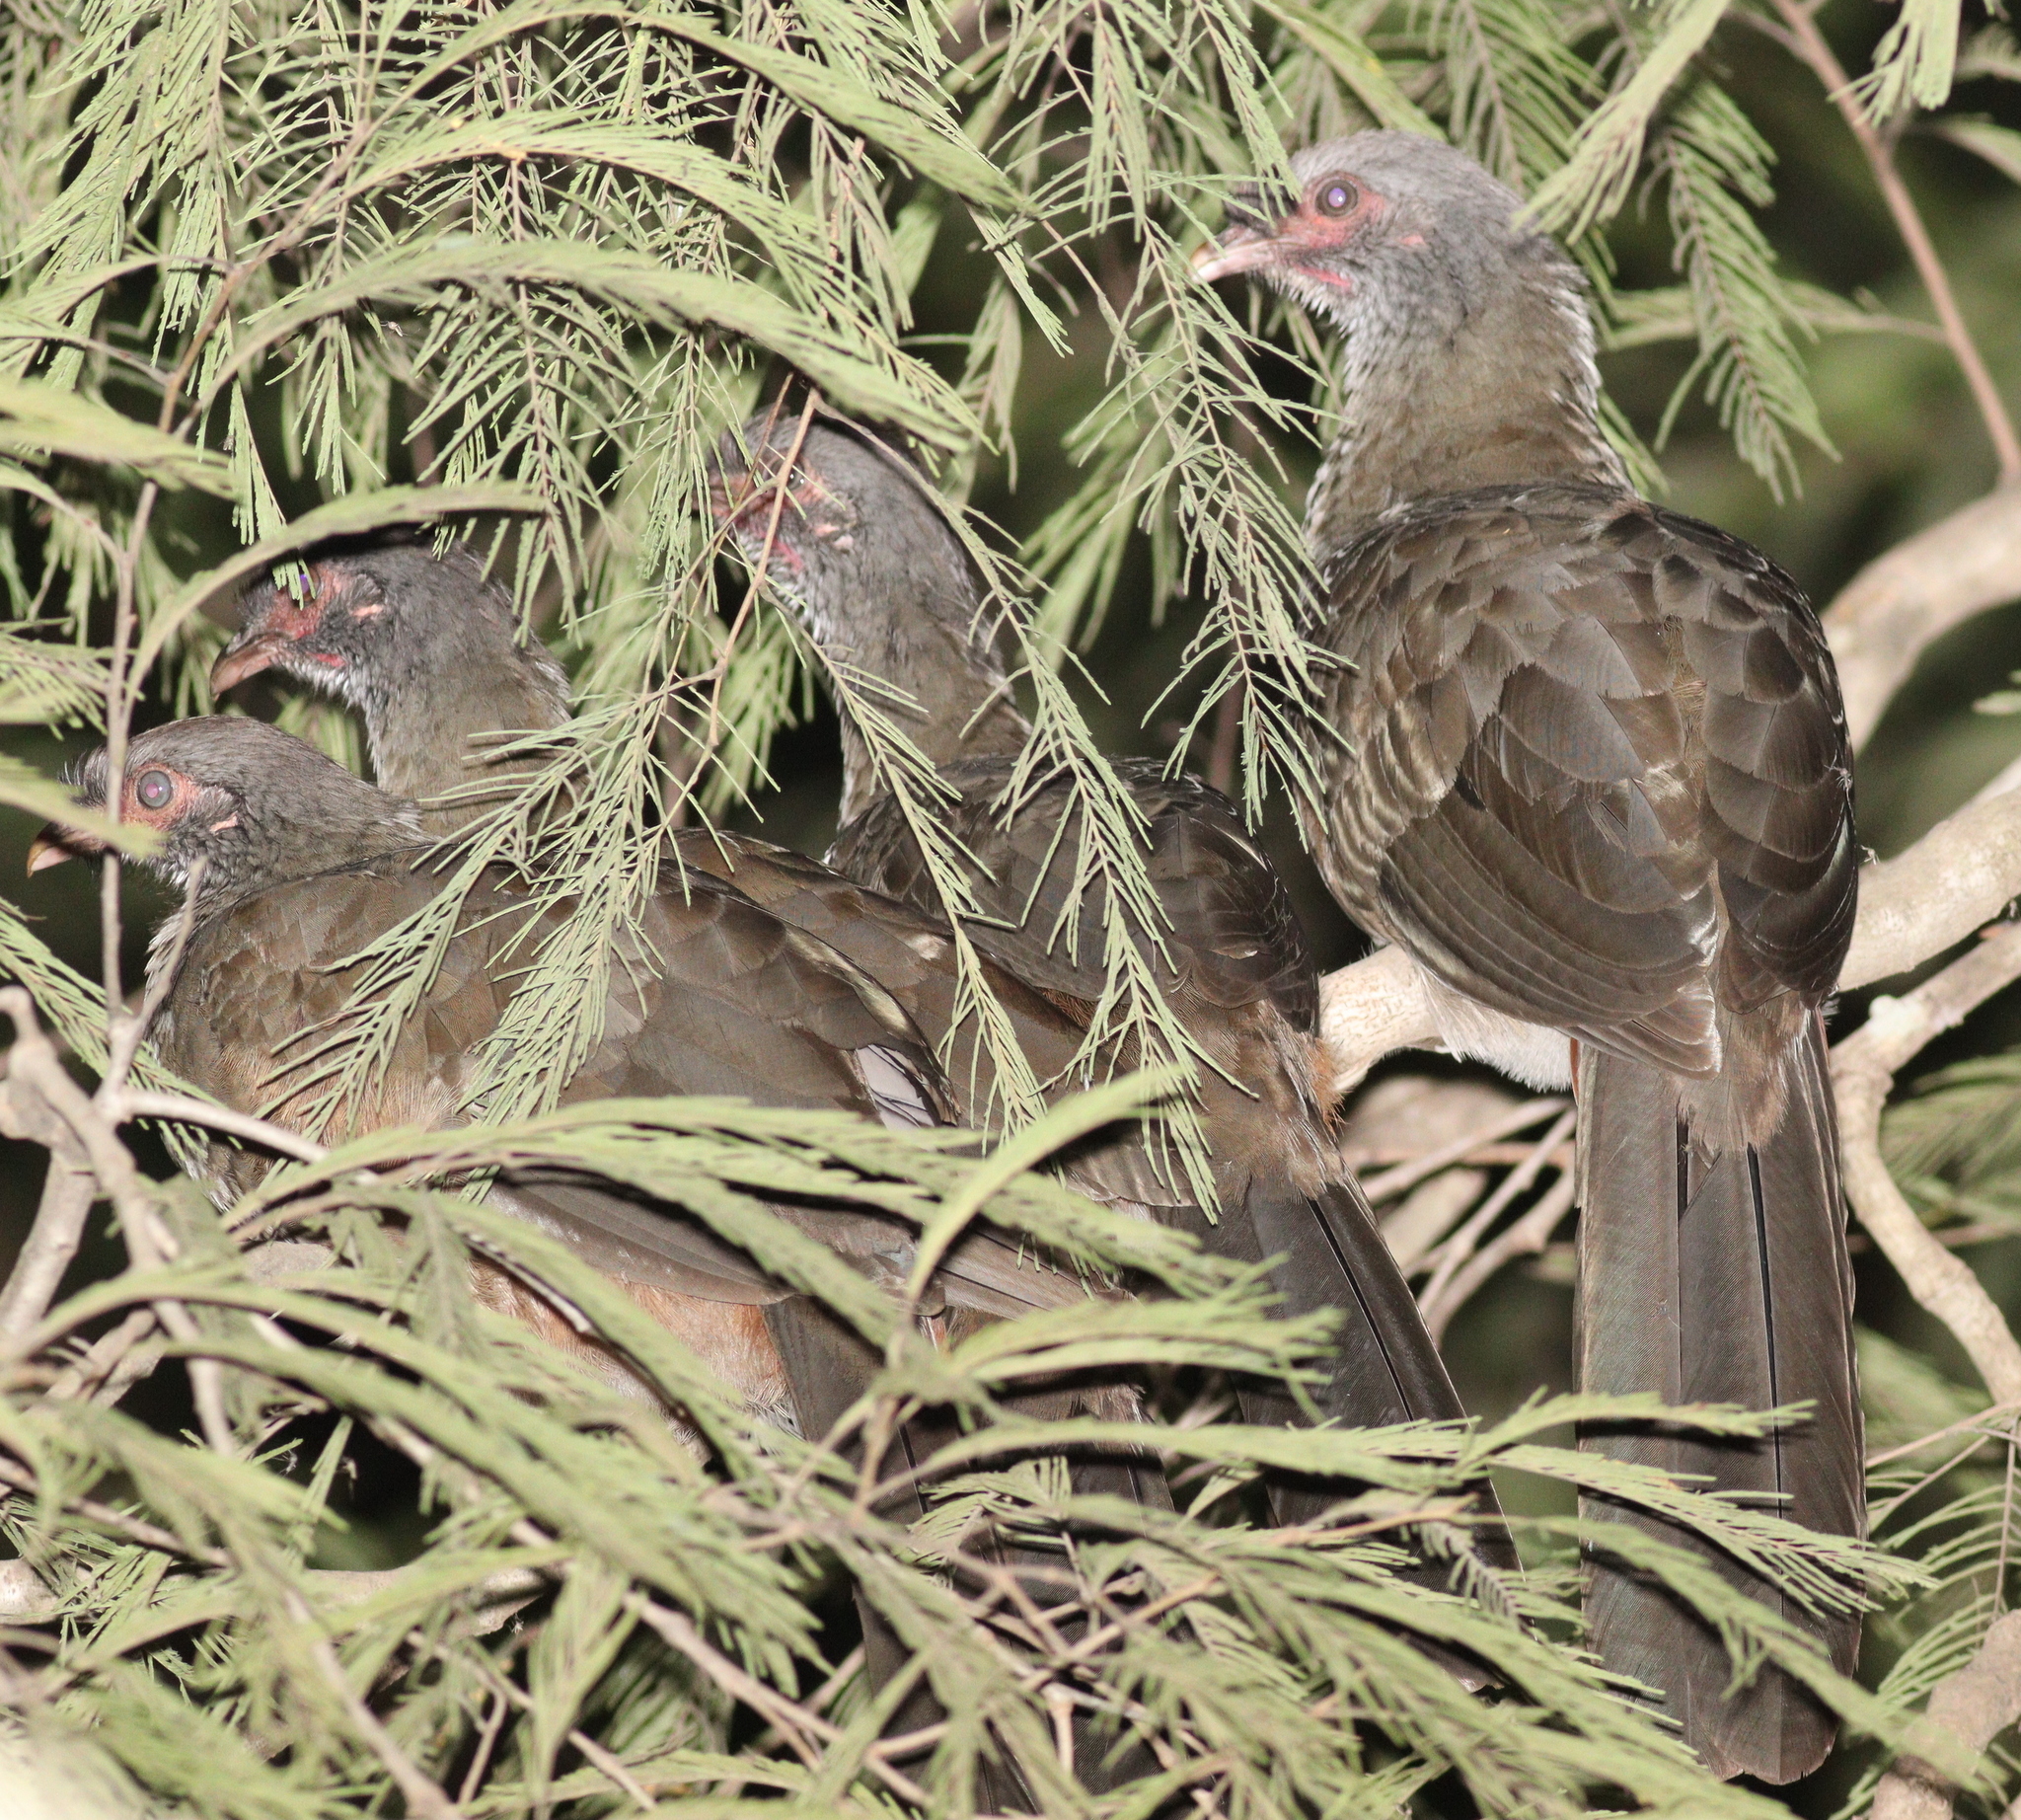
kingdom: Animalia
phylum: Chordata
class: Aves
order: Galliformes
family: Cracidae
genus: Ortalis
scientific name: Ortalis canicollis
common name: Chaco chachalaca
